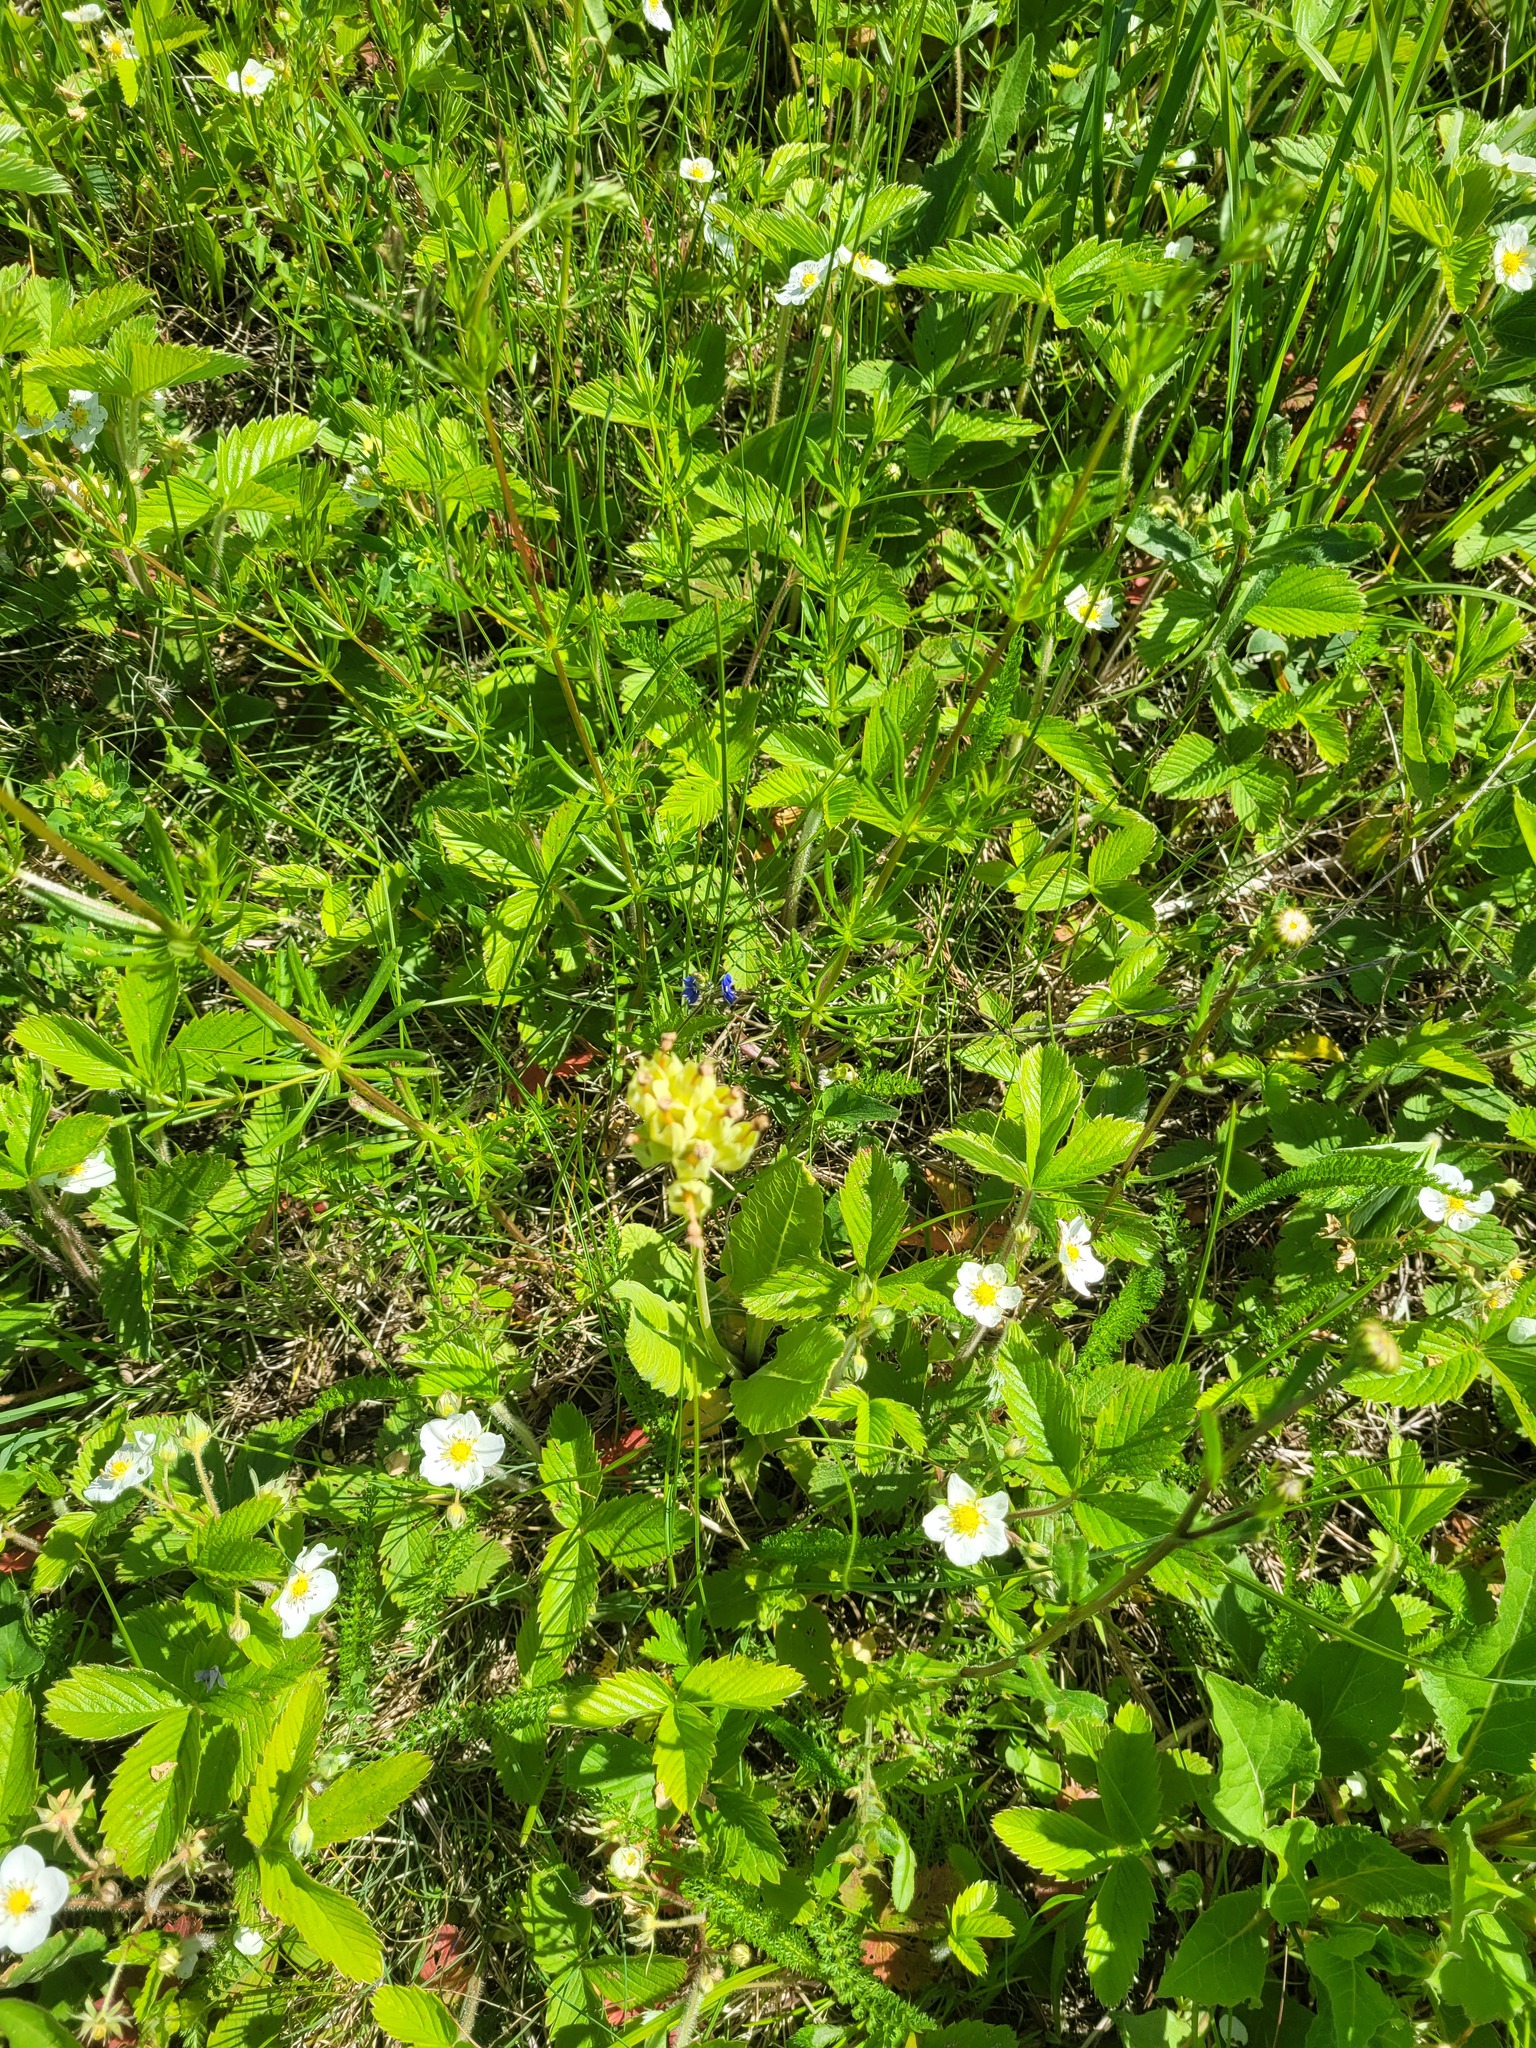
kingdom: Plantae
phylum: Tracheophyta
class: Magnoliopsida
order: Ericales
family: Primulaceae
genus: Primula
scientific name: Primula veris
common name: Cowslip
